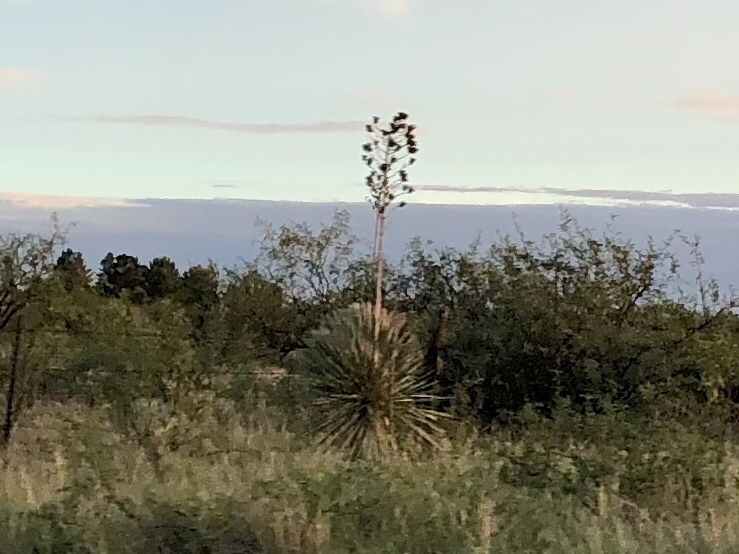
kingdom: Plantae
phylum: Tracheophyta
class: Liliopsida
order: Asparagales
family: Asparagaceae
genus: Yucca
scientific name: Yucca elata
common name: Palmella
